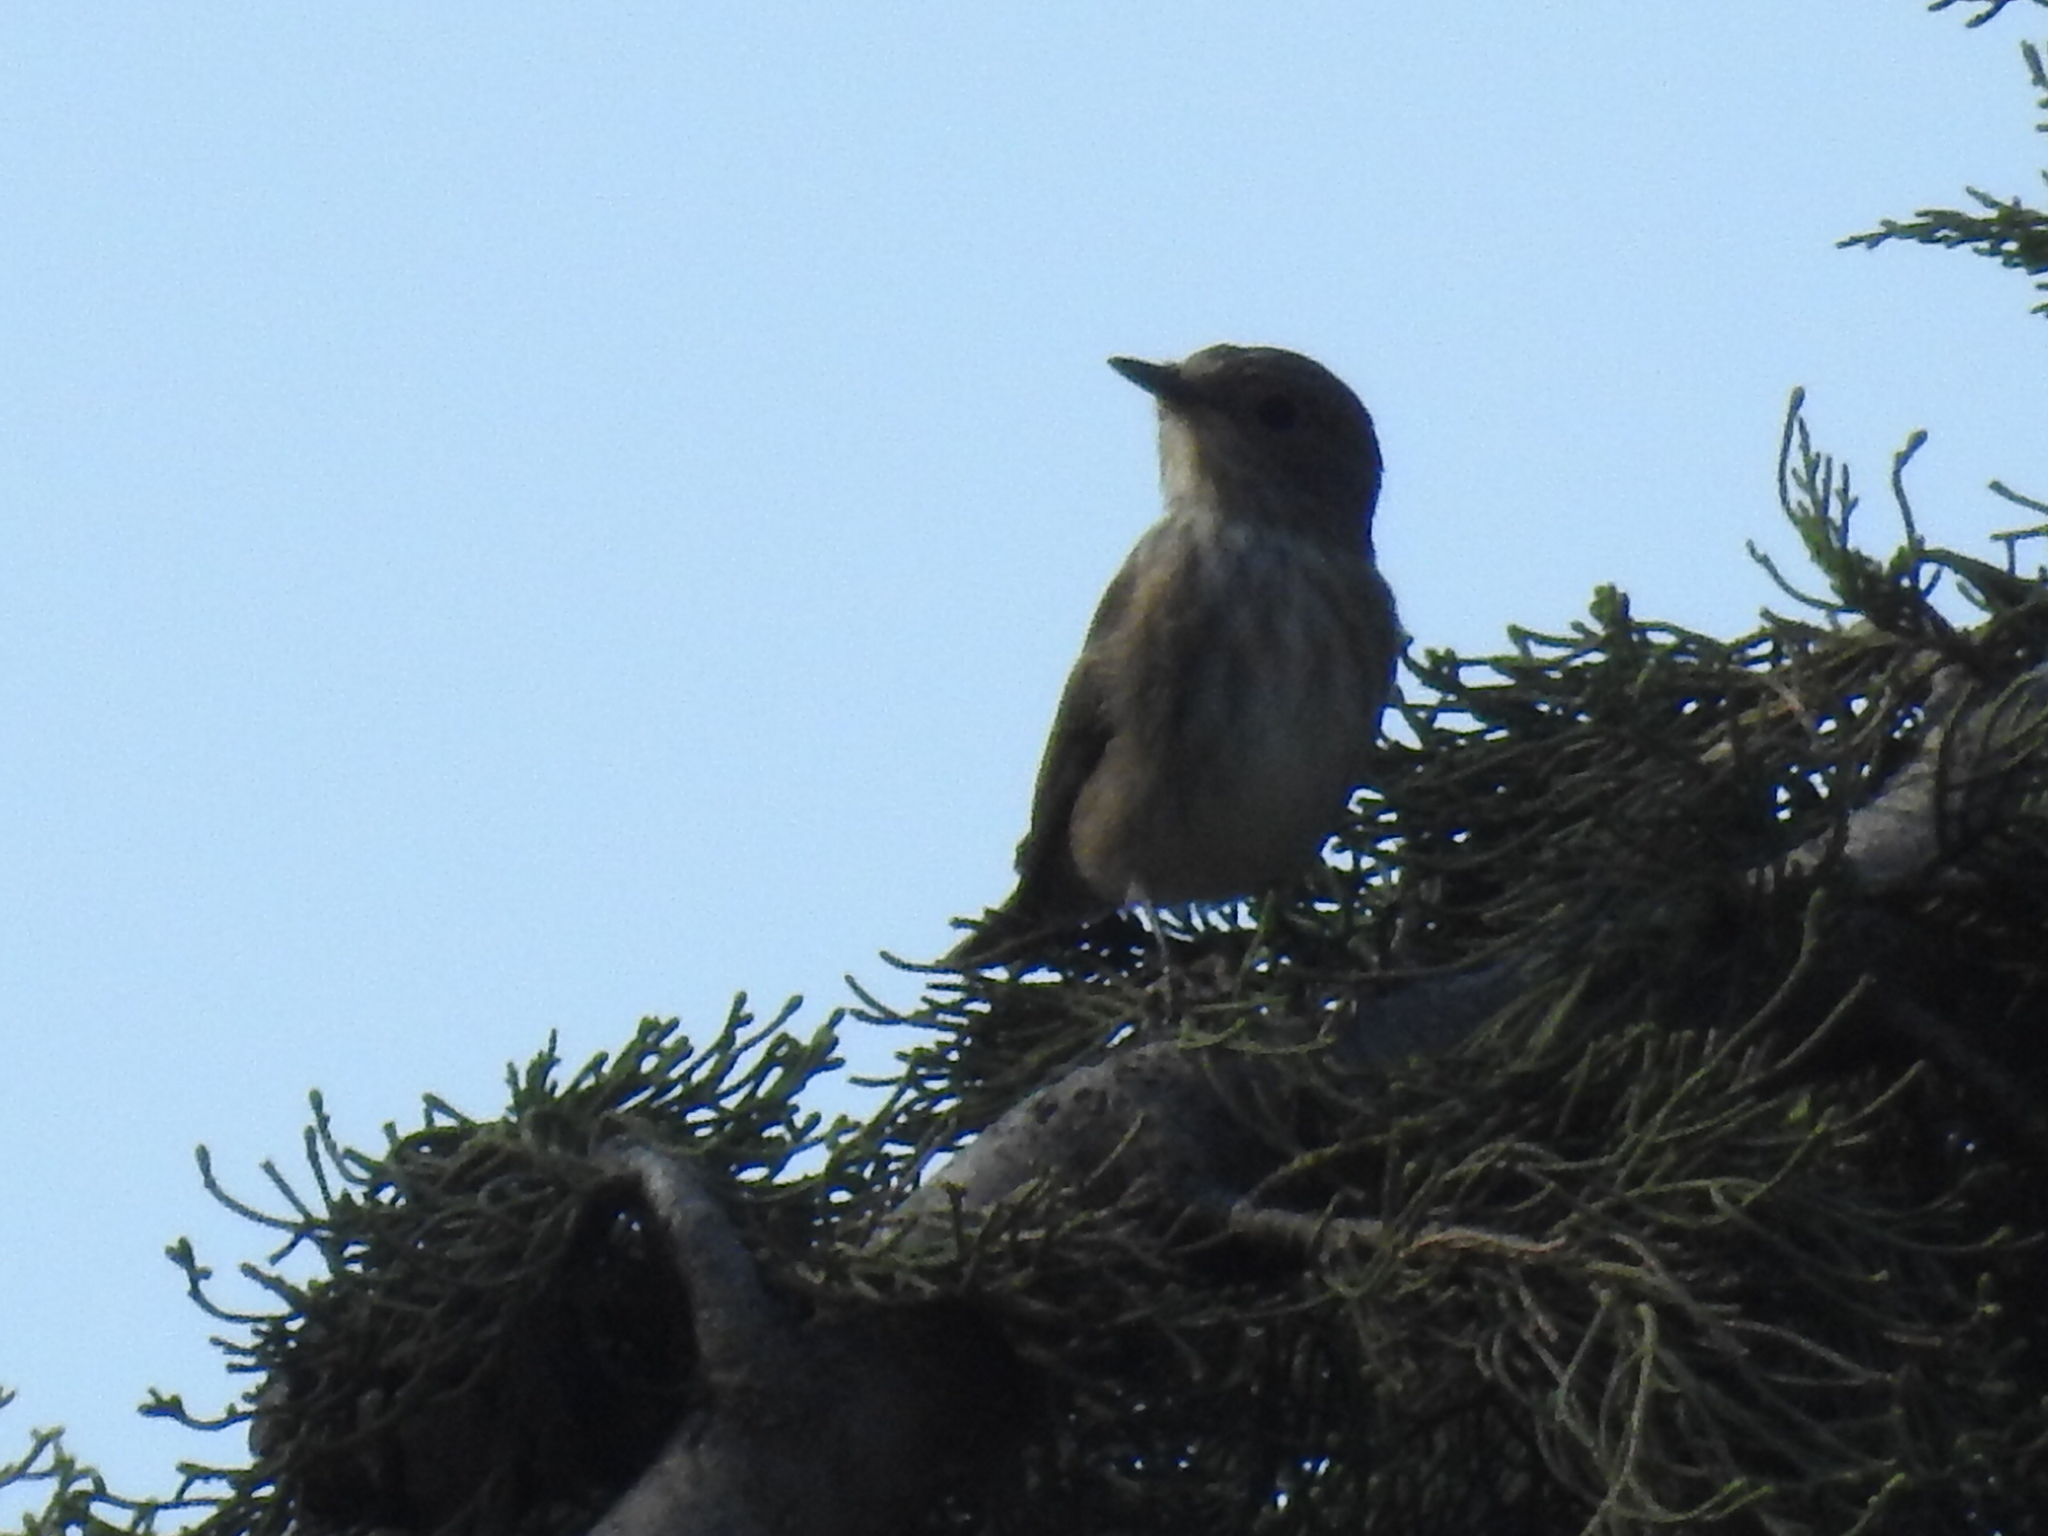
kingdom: Animalia
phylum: Chordata
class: Aves
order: Passeriformes
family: Muscicapidae
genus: Muscicapa
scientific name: Muscicapa striata
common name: Spotted flycatcher
